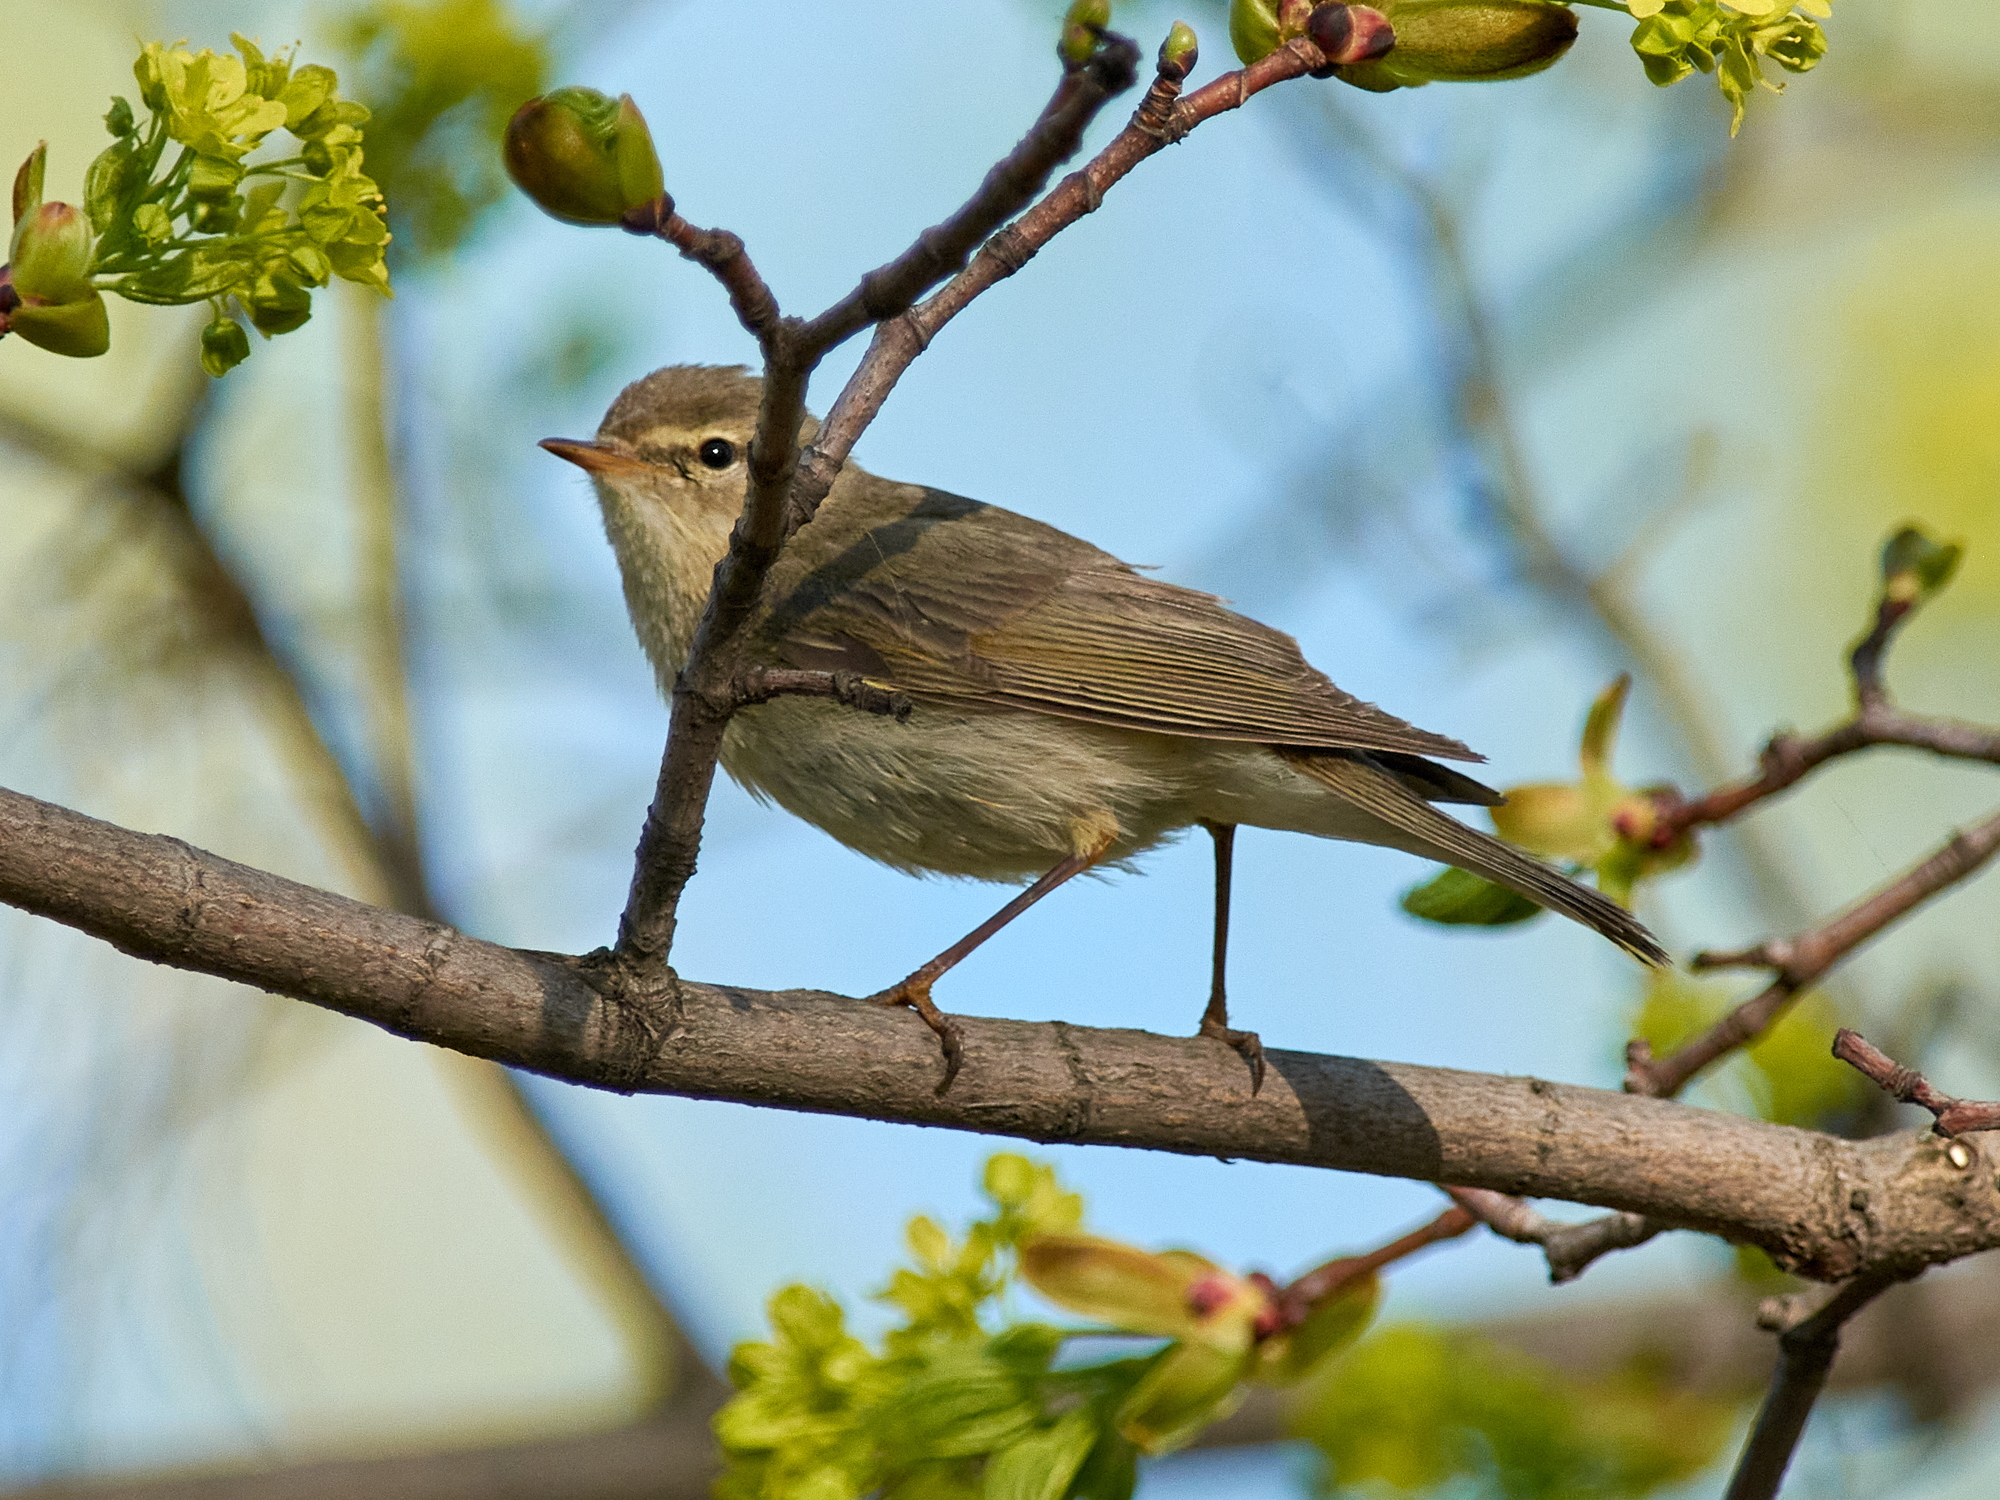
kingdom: Animalia
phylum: Chordata
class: Aves
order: Passeriformes
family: Phylloscopidae
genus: Phylloscopus
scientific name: Phylloscopus trochilus
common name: Willow warbler
